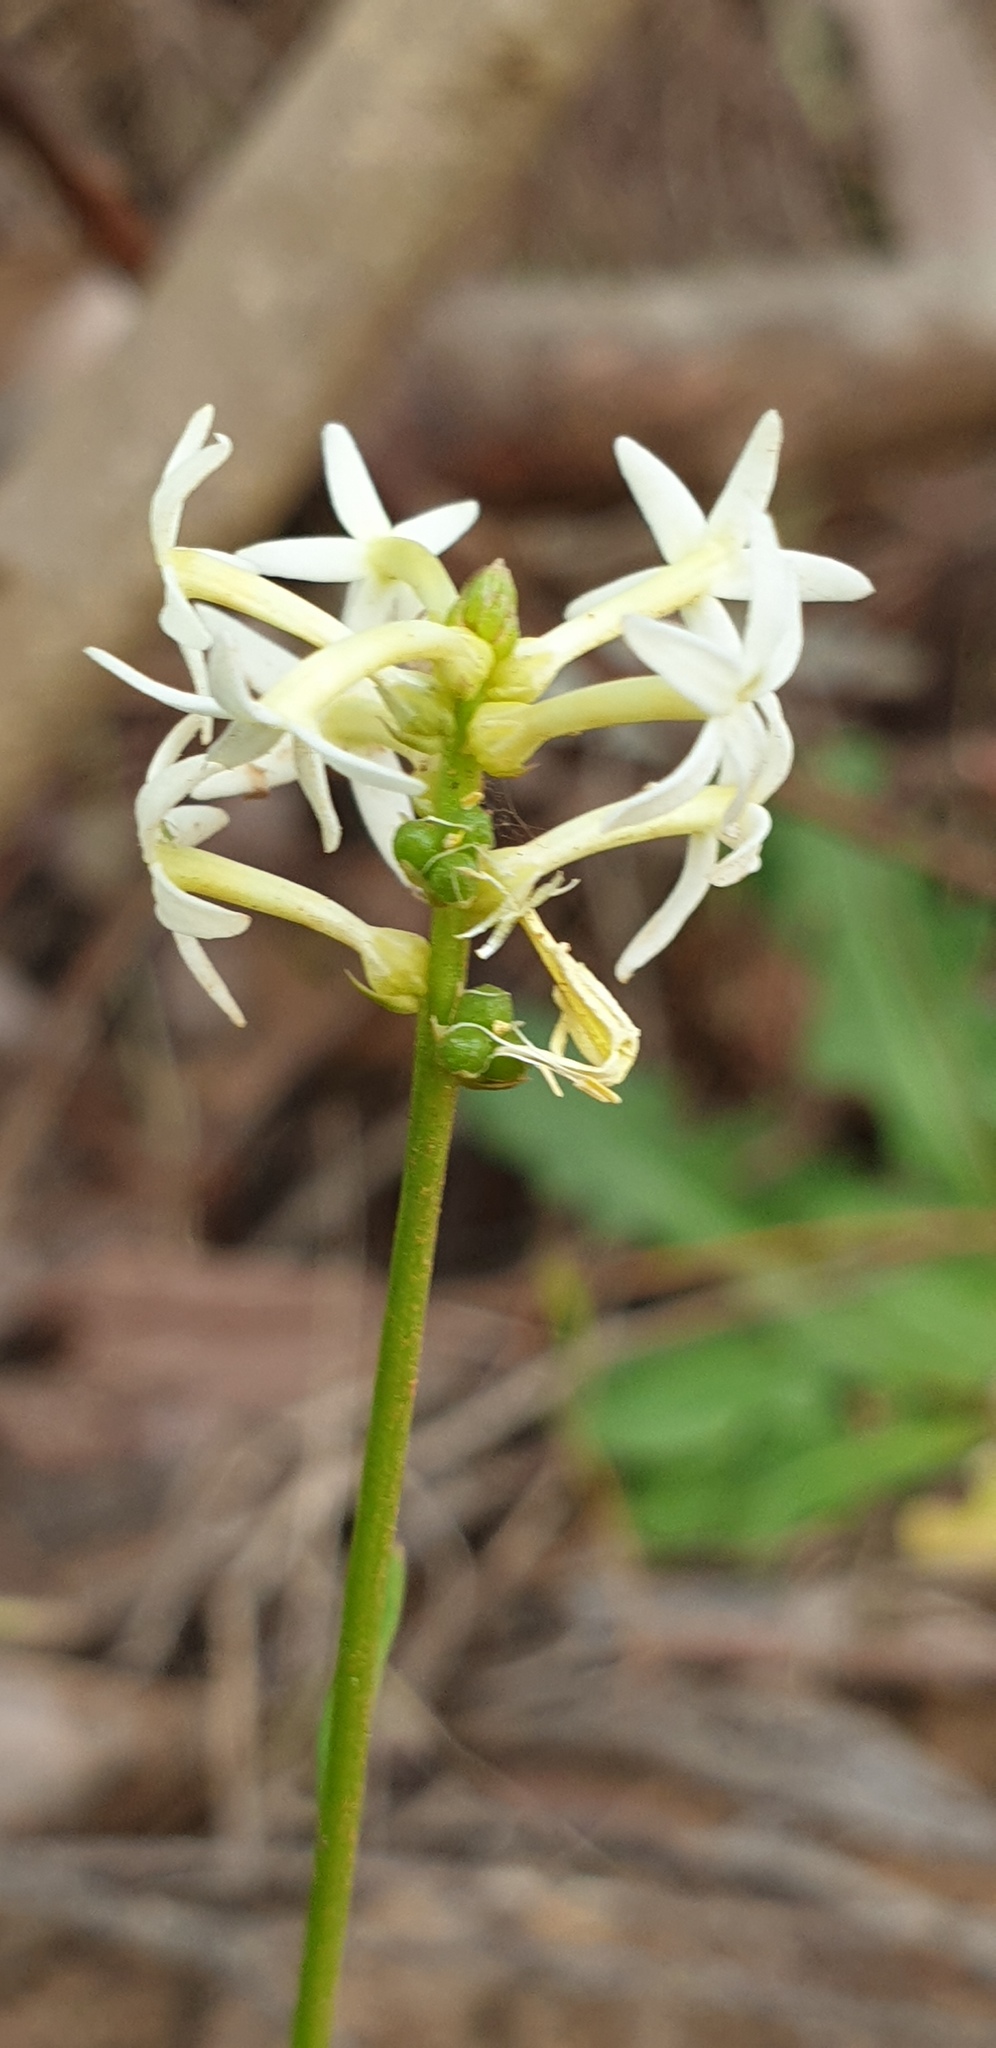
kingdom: Plantae
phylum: Tracheophyta
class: Magnoliopsida
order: Celastrales
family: Celastraceae
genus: Stackhousia
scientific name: Stackhousia monogyna
